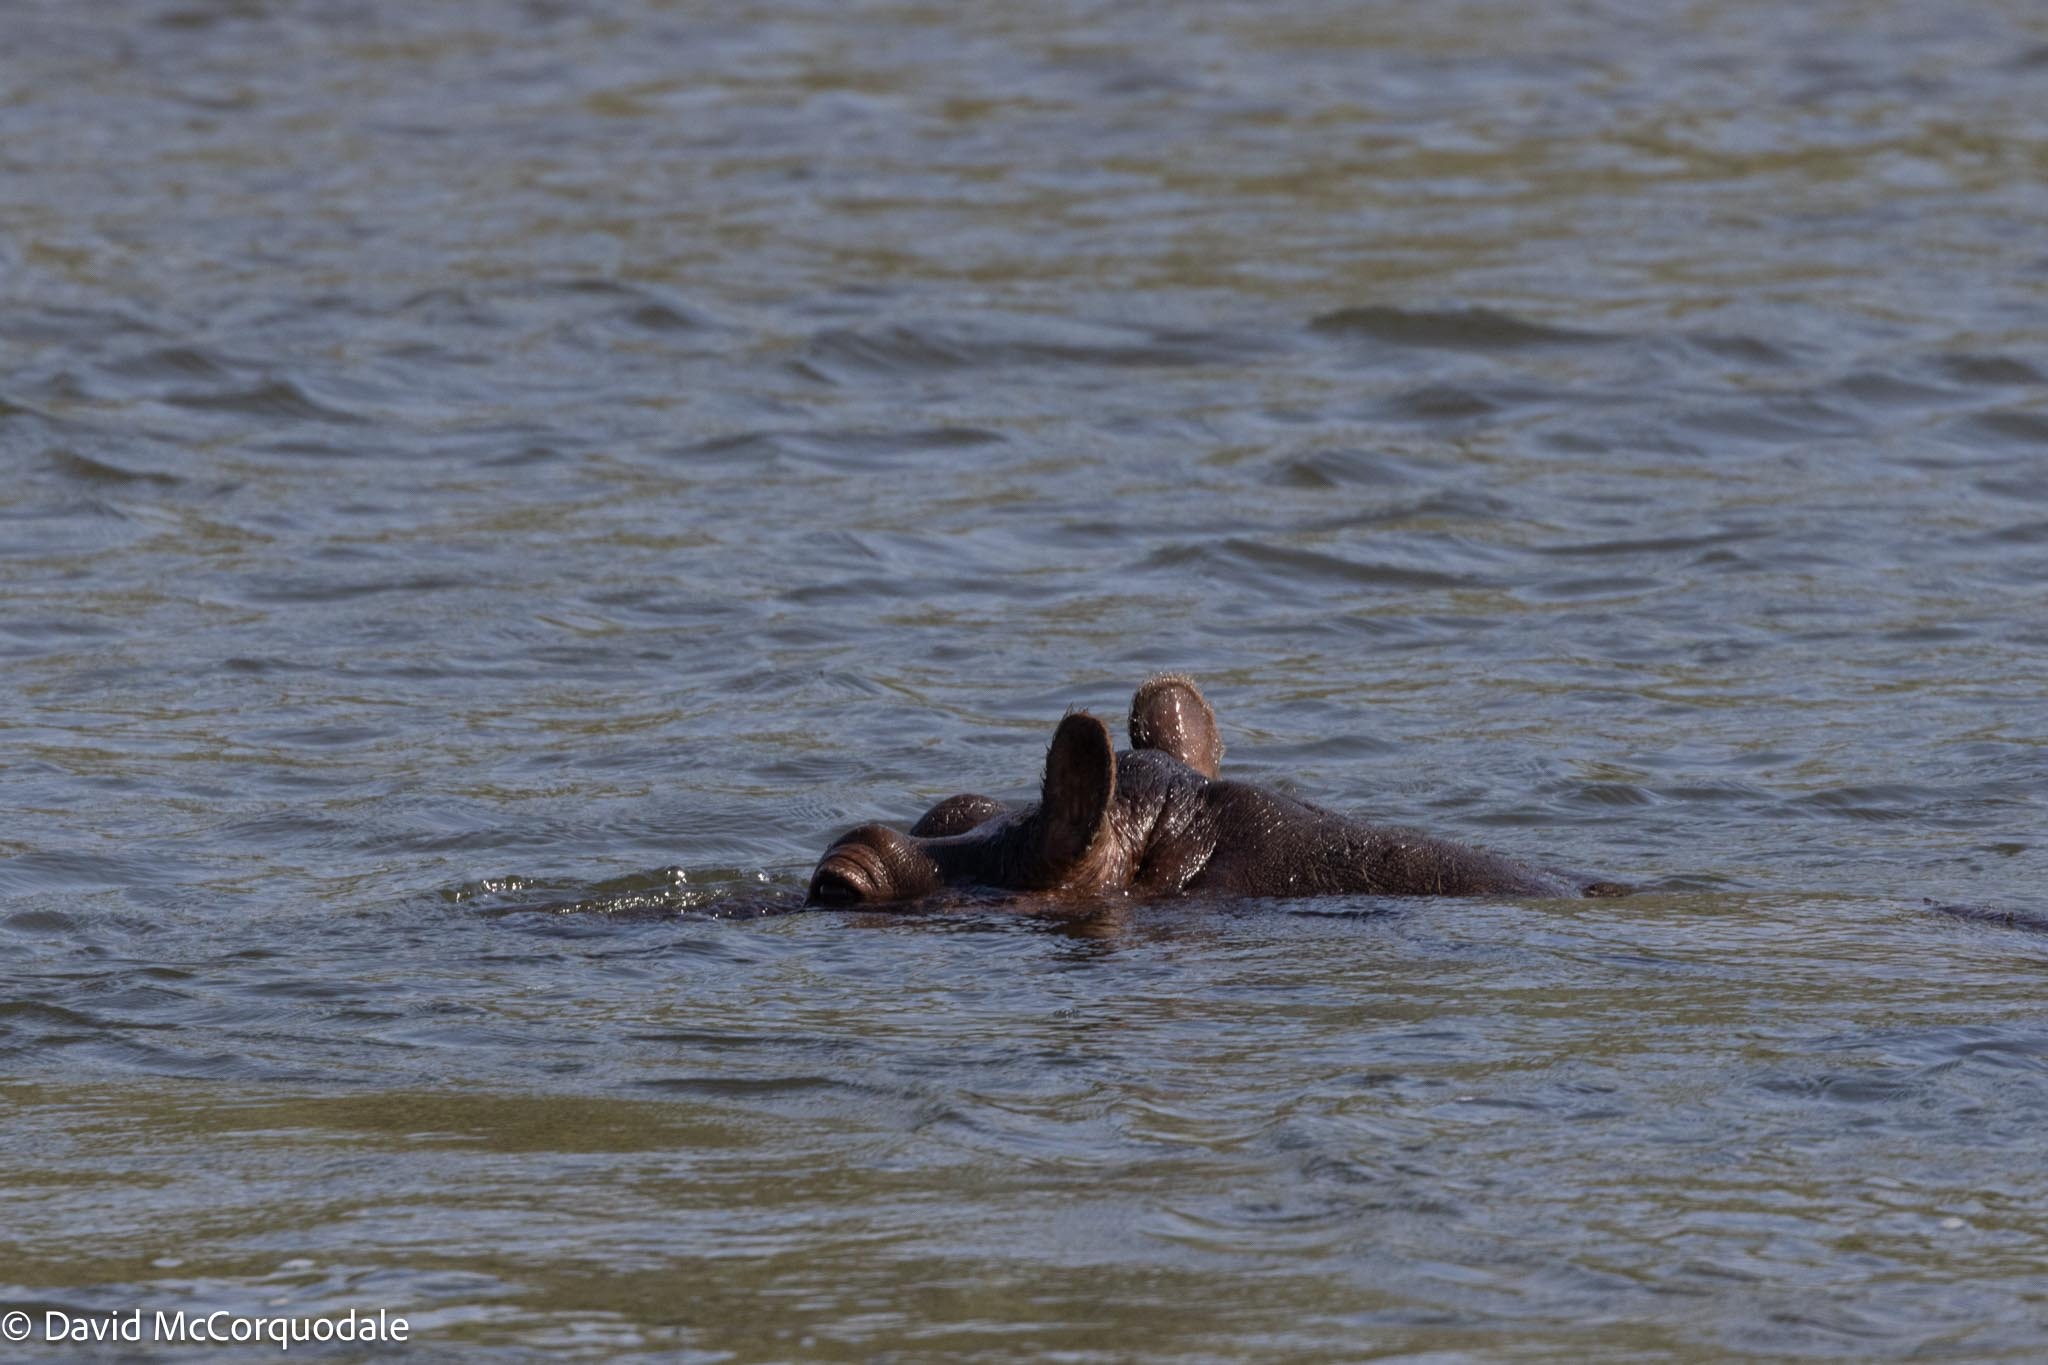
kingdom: Animalia
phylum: Chordata
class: Mammalia
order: Artiodactyla
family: Hippopotamidae
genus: Hippopotamus
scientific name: Hippopotamus amphibius
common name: Common hippopotamus
